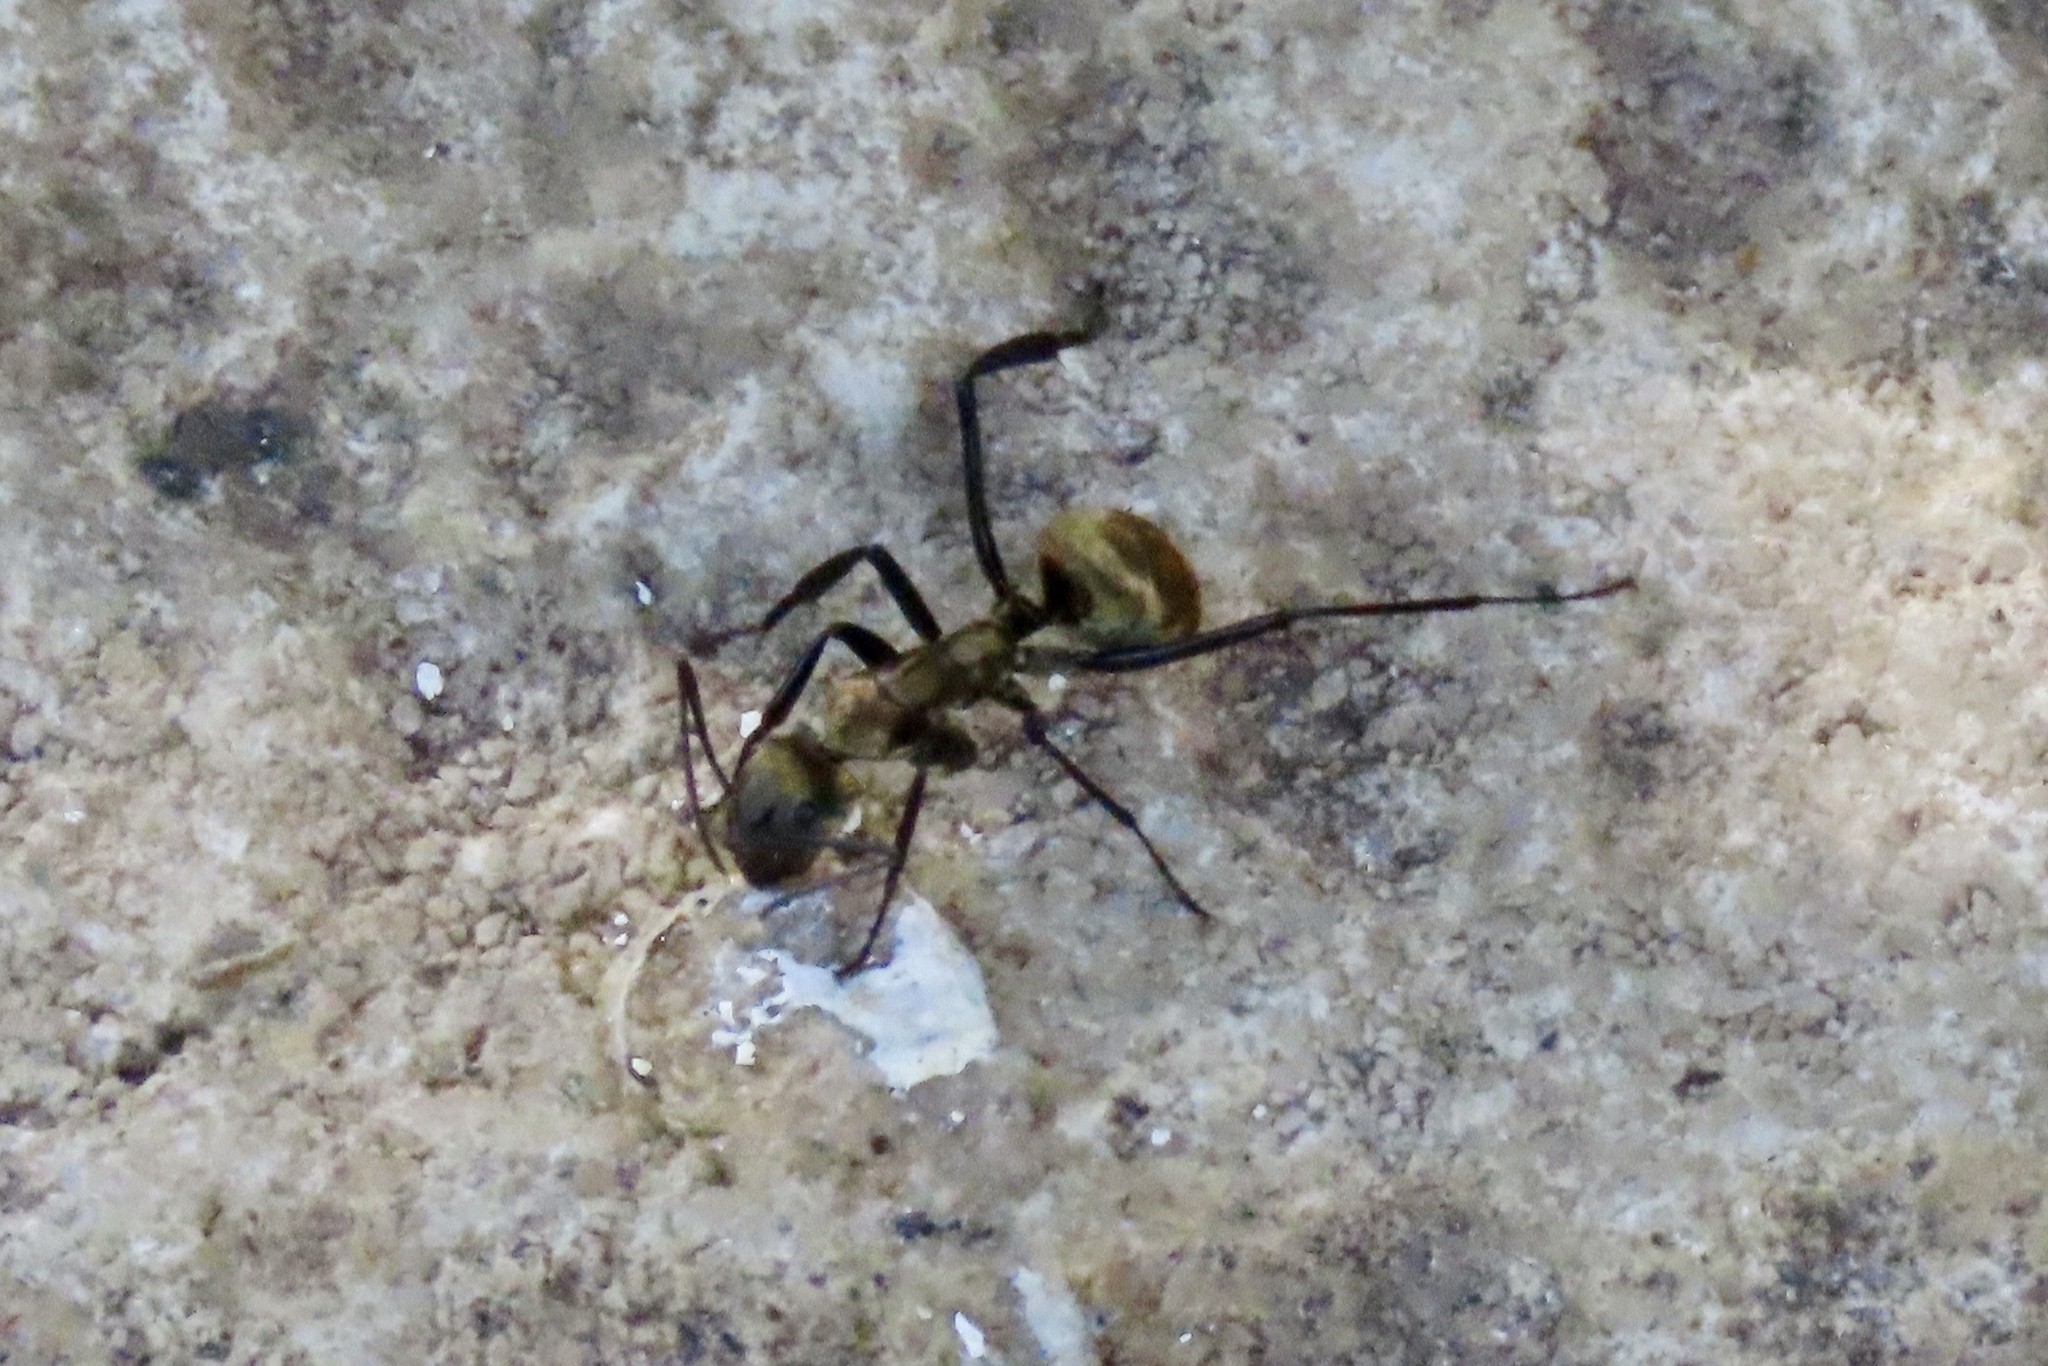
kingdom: Animalia
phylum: Arthropoda
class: Insecta
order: Hymenoptera
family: Formicidae
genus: Camponotus
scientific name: Camponotus sericeiventris
